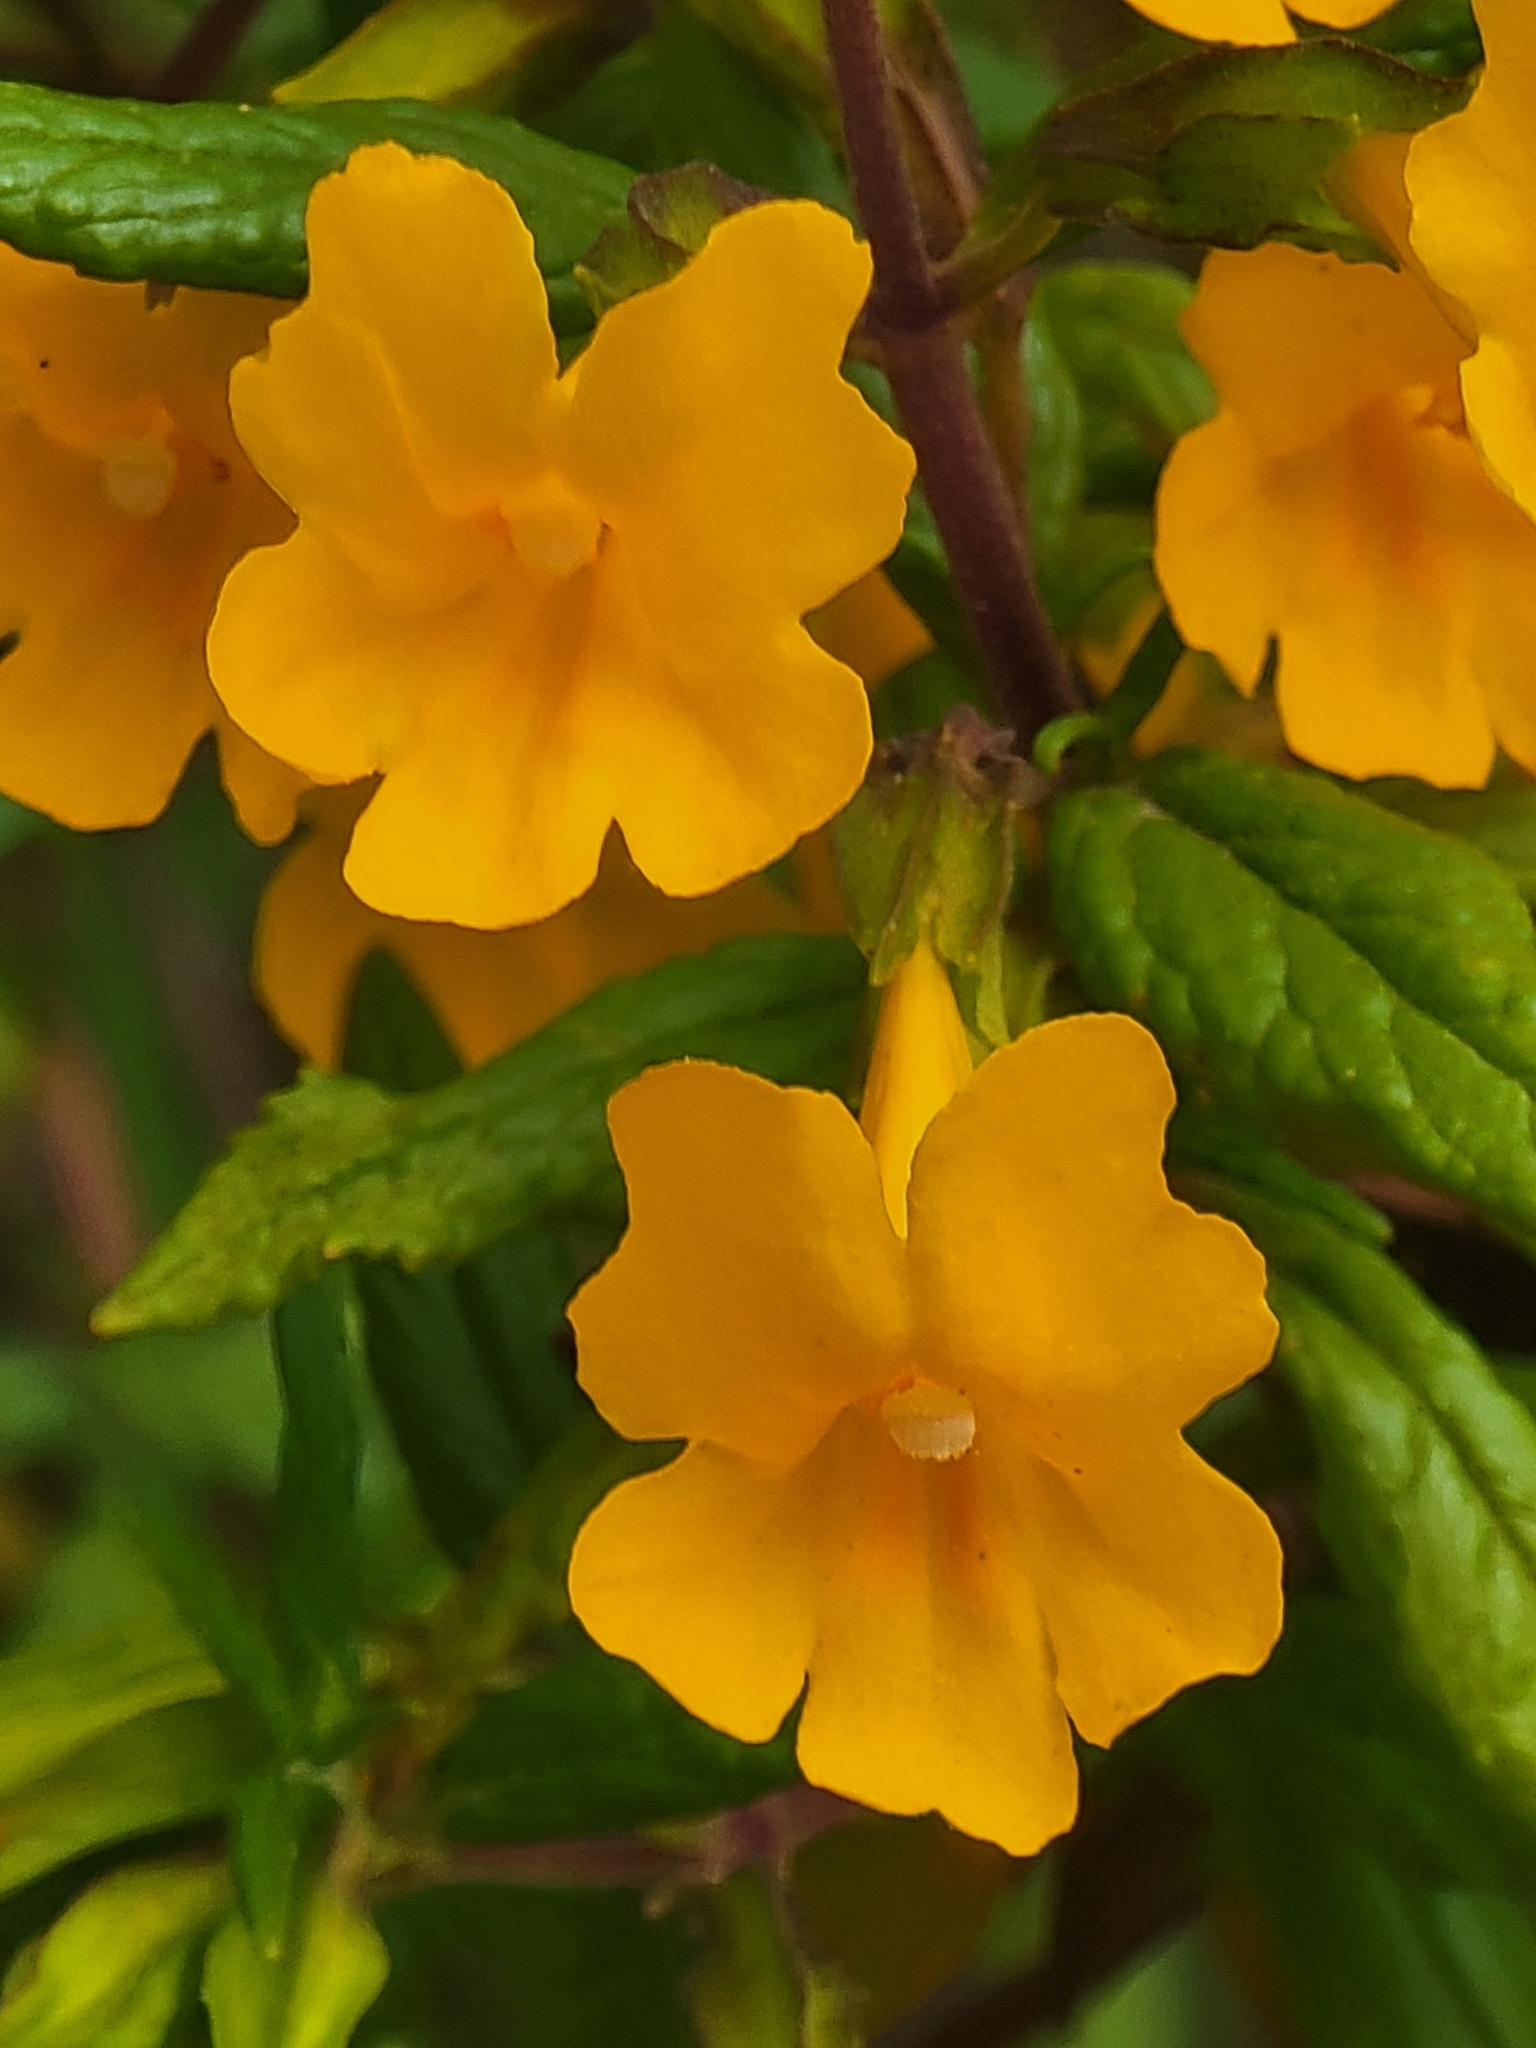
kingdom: Plantae
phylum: Tracheophyta
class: Magnoliopsida
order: Lamiales
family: Phrymaceae
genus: Diplacus
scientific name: Diplacus aurantiacus
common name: Bush monkey-flower
